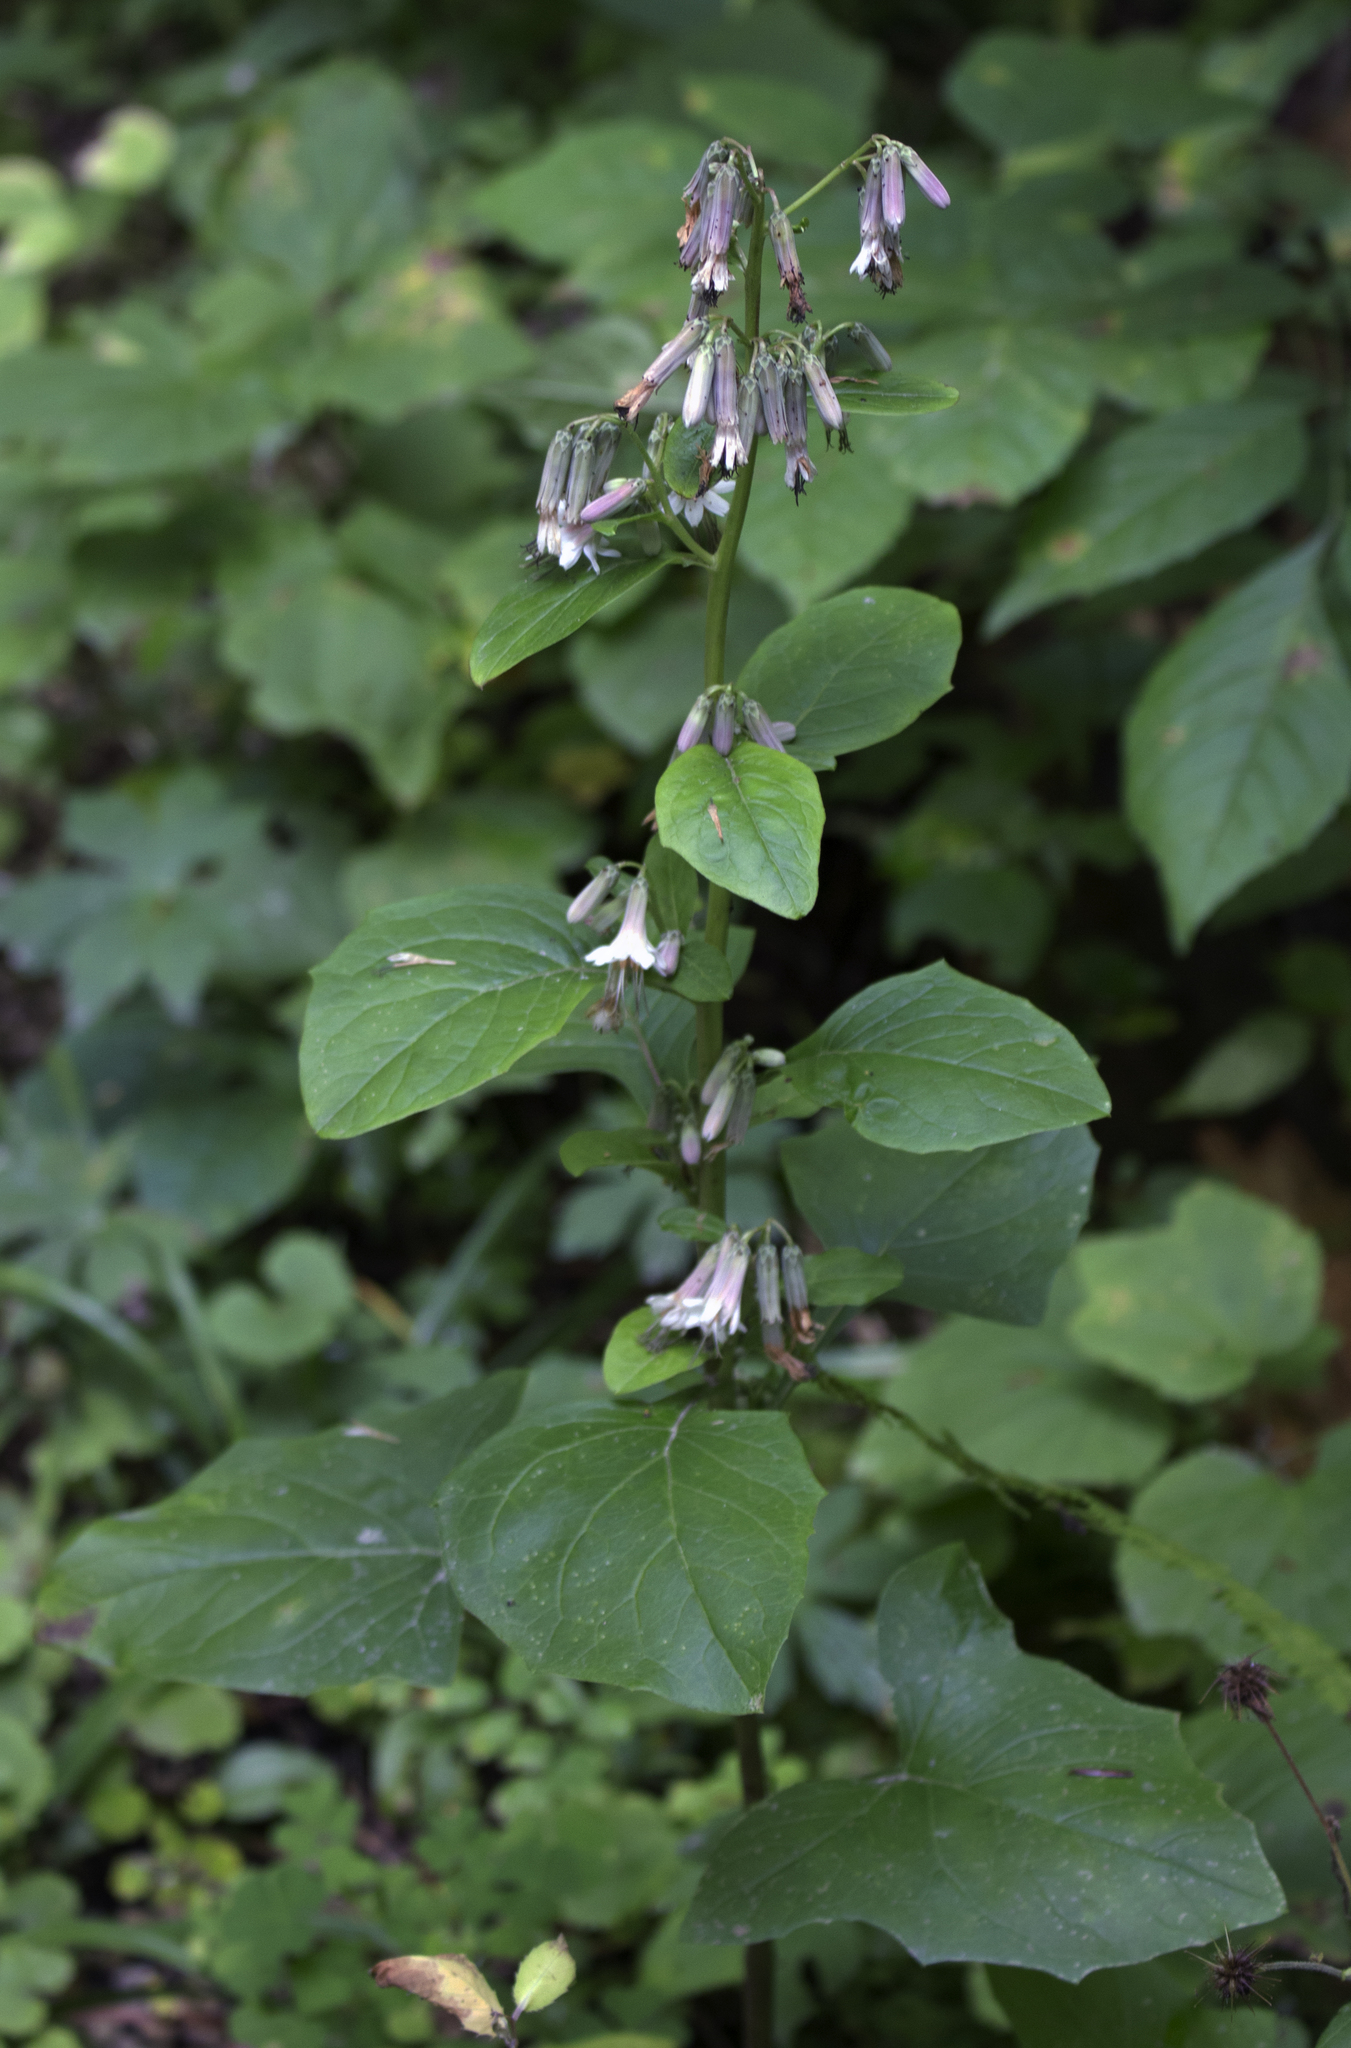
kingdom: Plantae
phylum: Tracheophyta
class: Magnoliopsida
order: Asterales
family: Asteraceae
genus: Nabalus
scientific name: Nabalus albus
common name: White rattlesnakeroot
